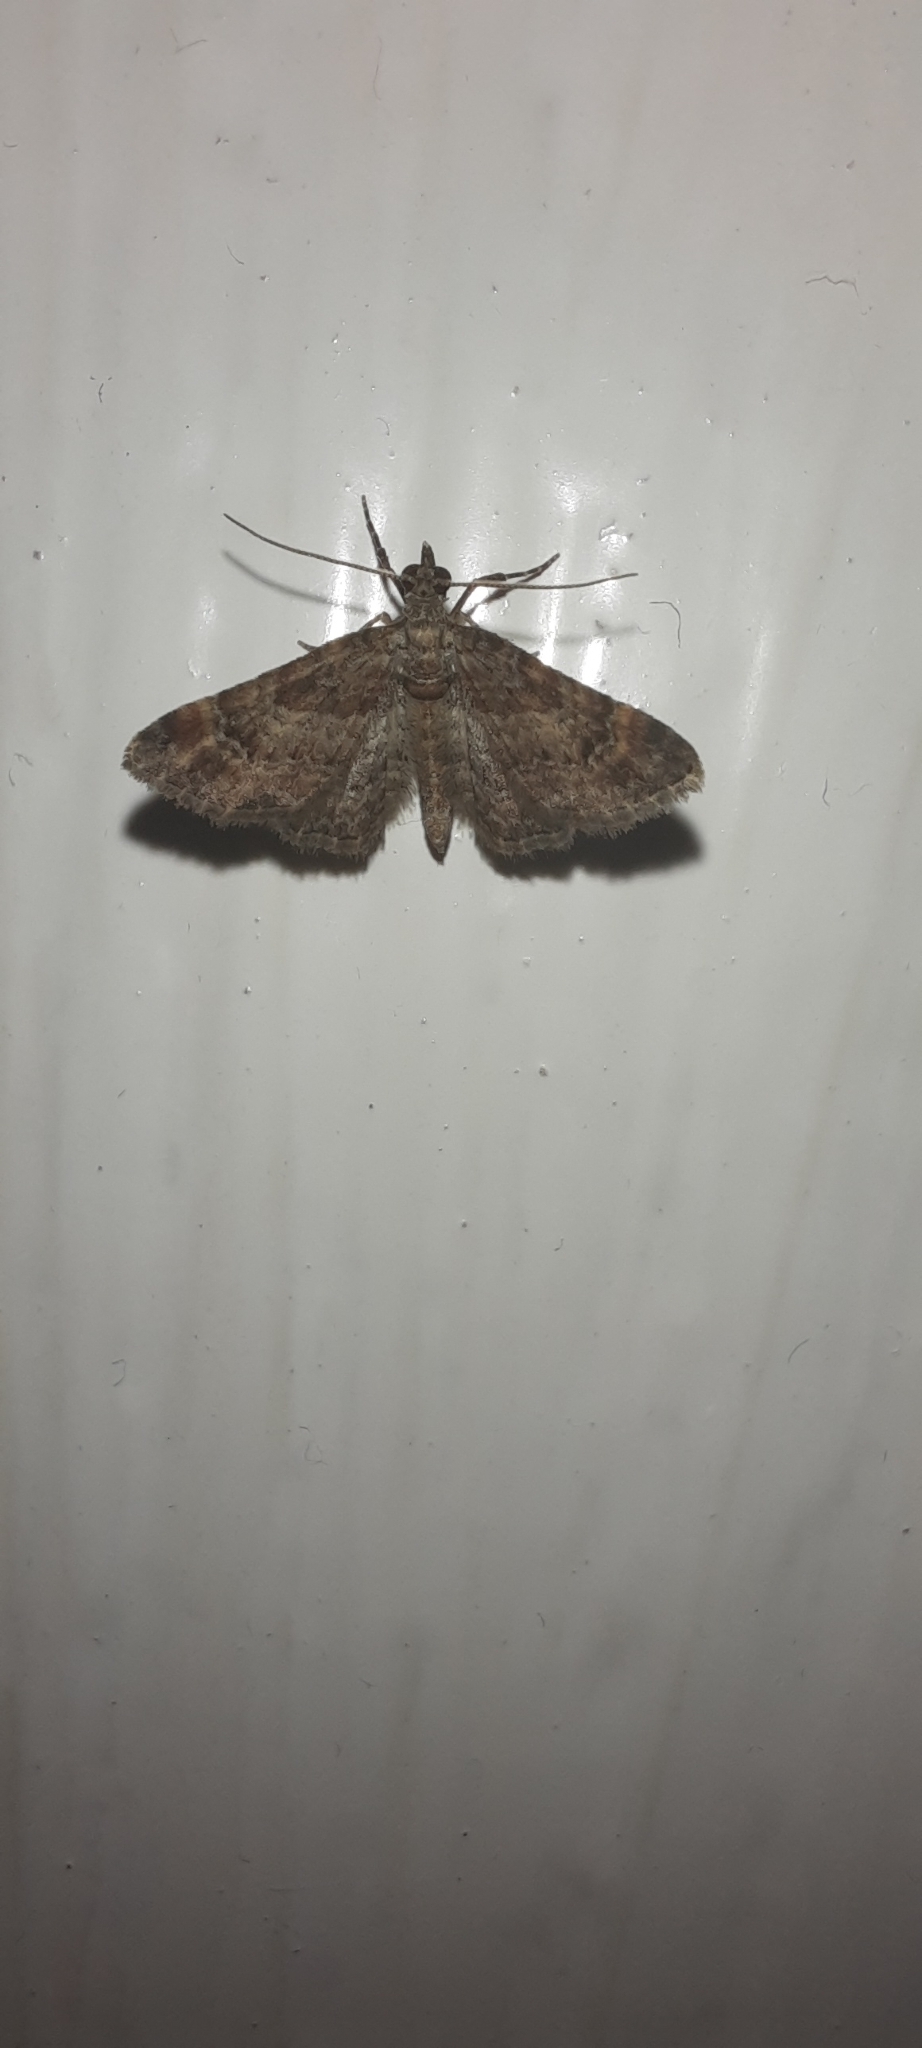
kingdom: Animalia
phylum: Arthropoda
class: Insecta
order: Lepidoptera
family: Geometridae
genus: Gymnoscelis
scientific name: Gymnoscelis rufifasciata
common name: Double-striped pug
